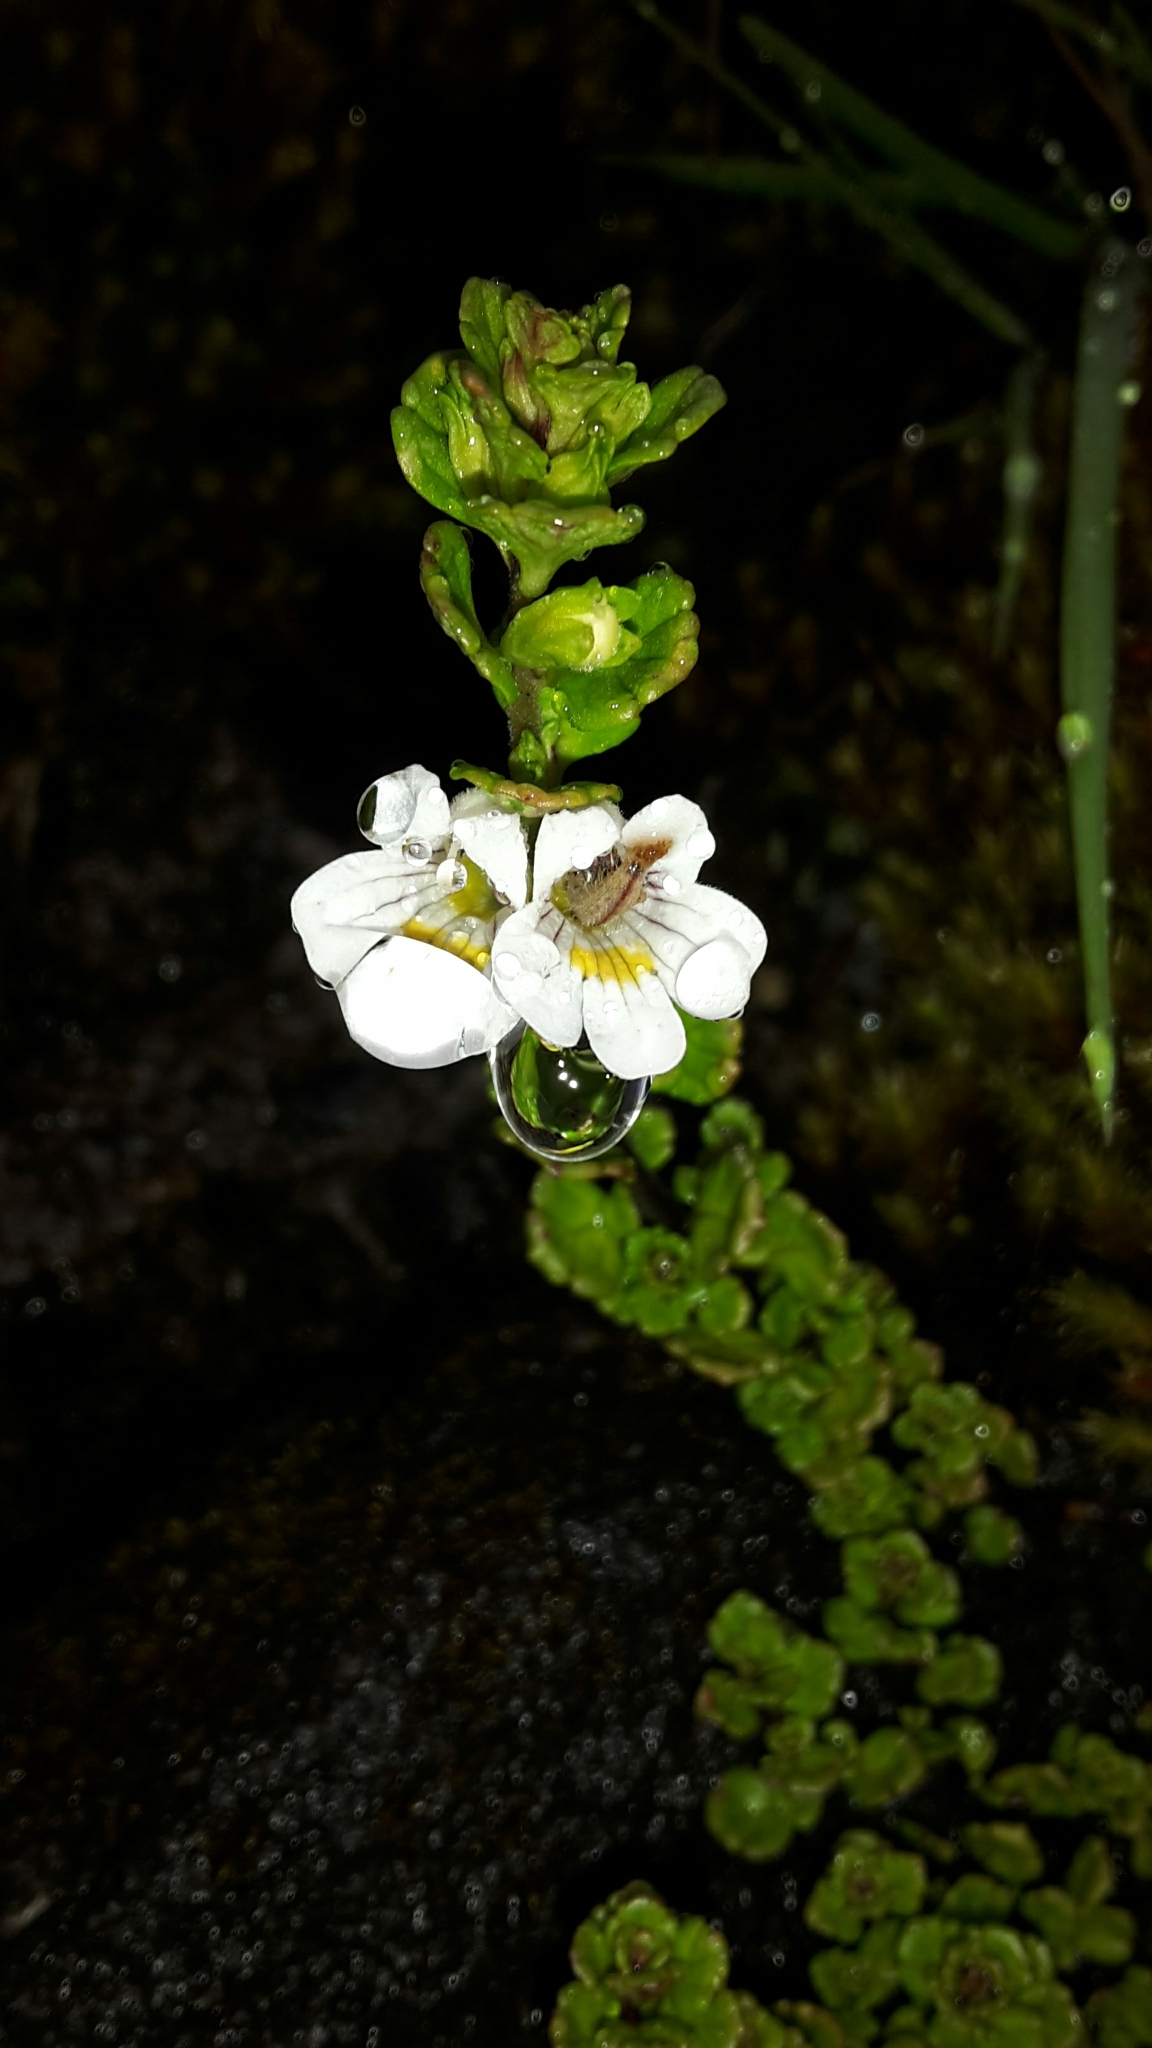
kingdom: Plantae
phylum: Tracheophyta
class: Magnoliopsida
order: Lamiales
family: Orobanchaceae
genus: Euphrasia
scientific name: Euphrasia cuneata
